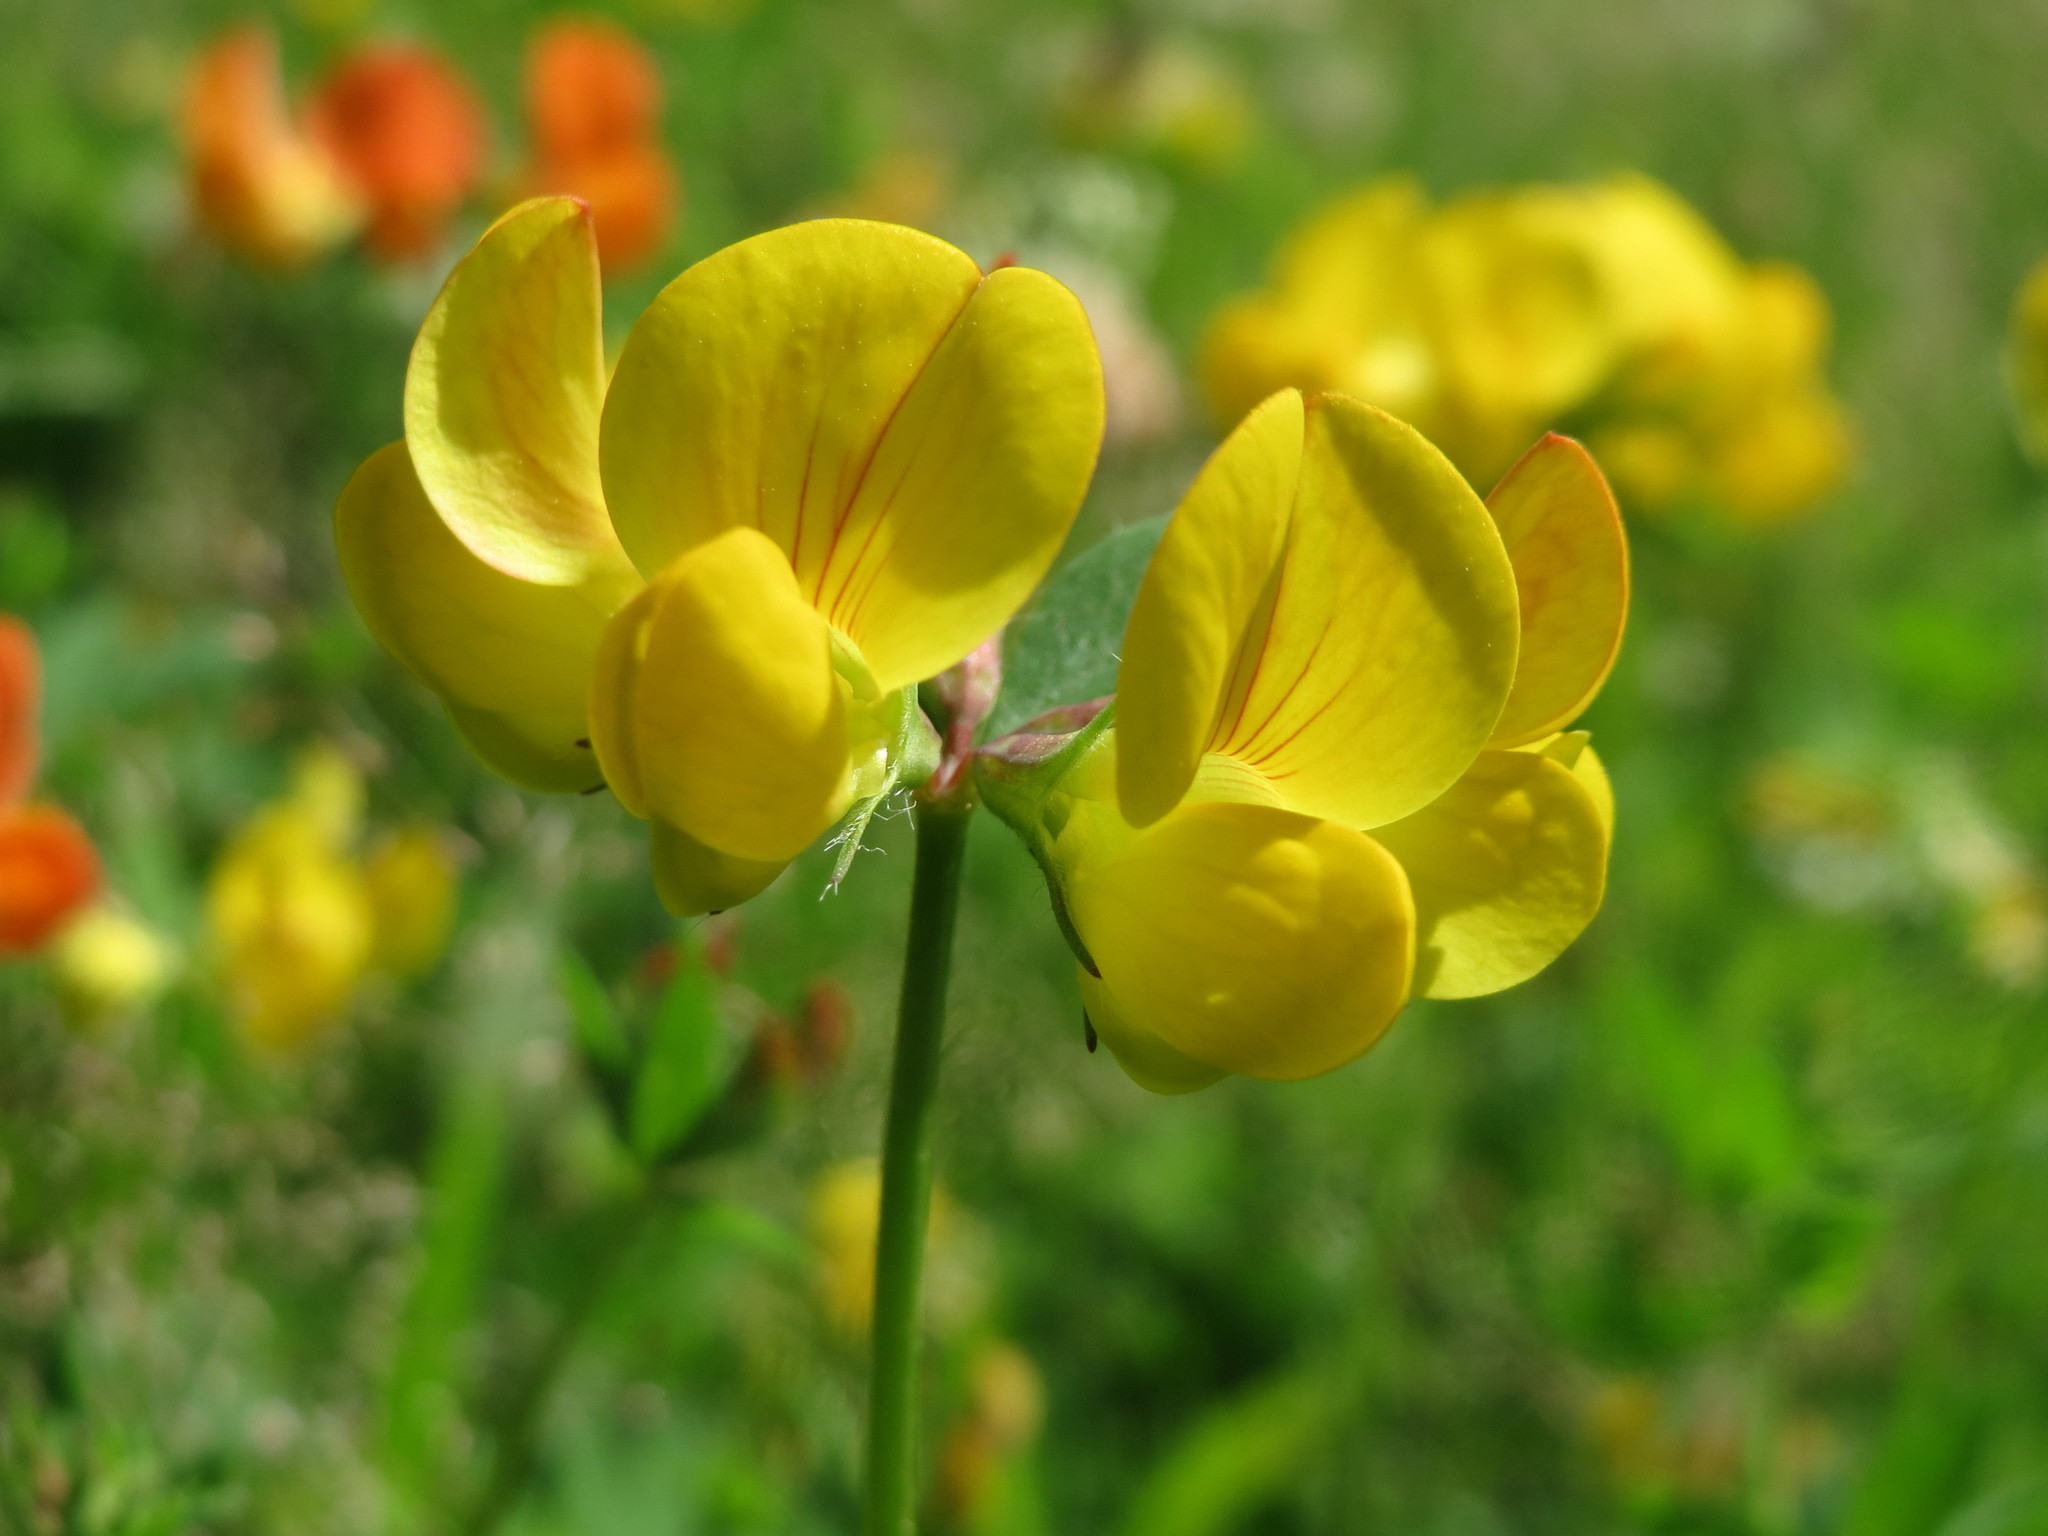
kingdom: Plantae
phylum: Tracheophyta
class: Magnoliopsida
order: Fabales
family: Fabaceae
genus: Lotus
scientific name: Lotus corniculatus
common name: Common bird's-foot-trefoil
